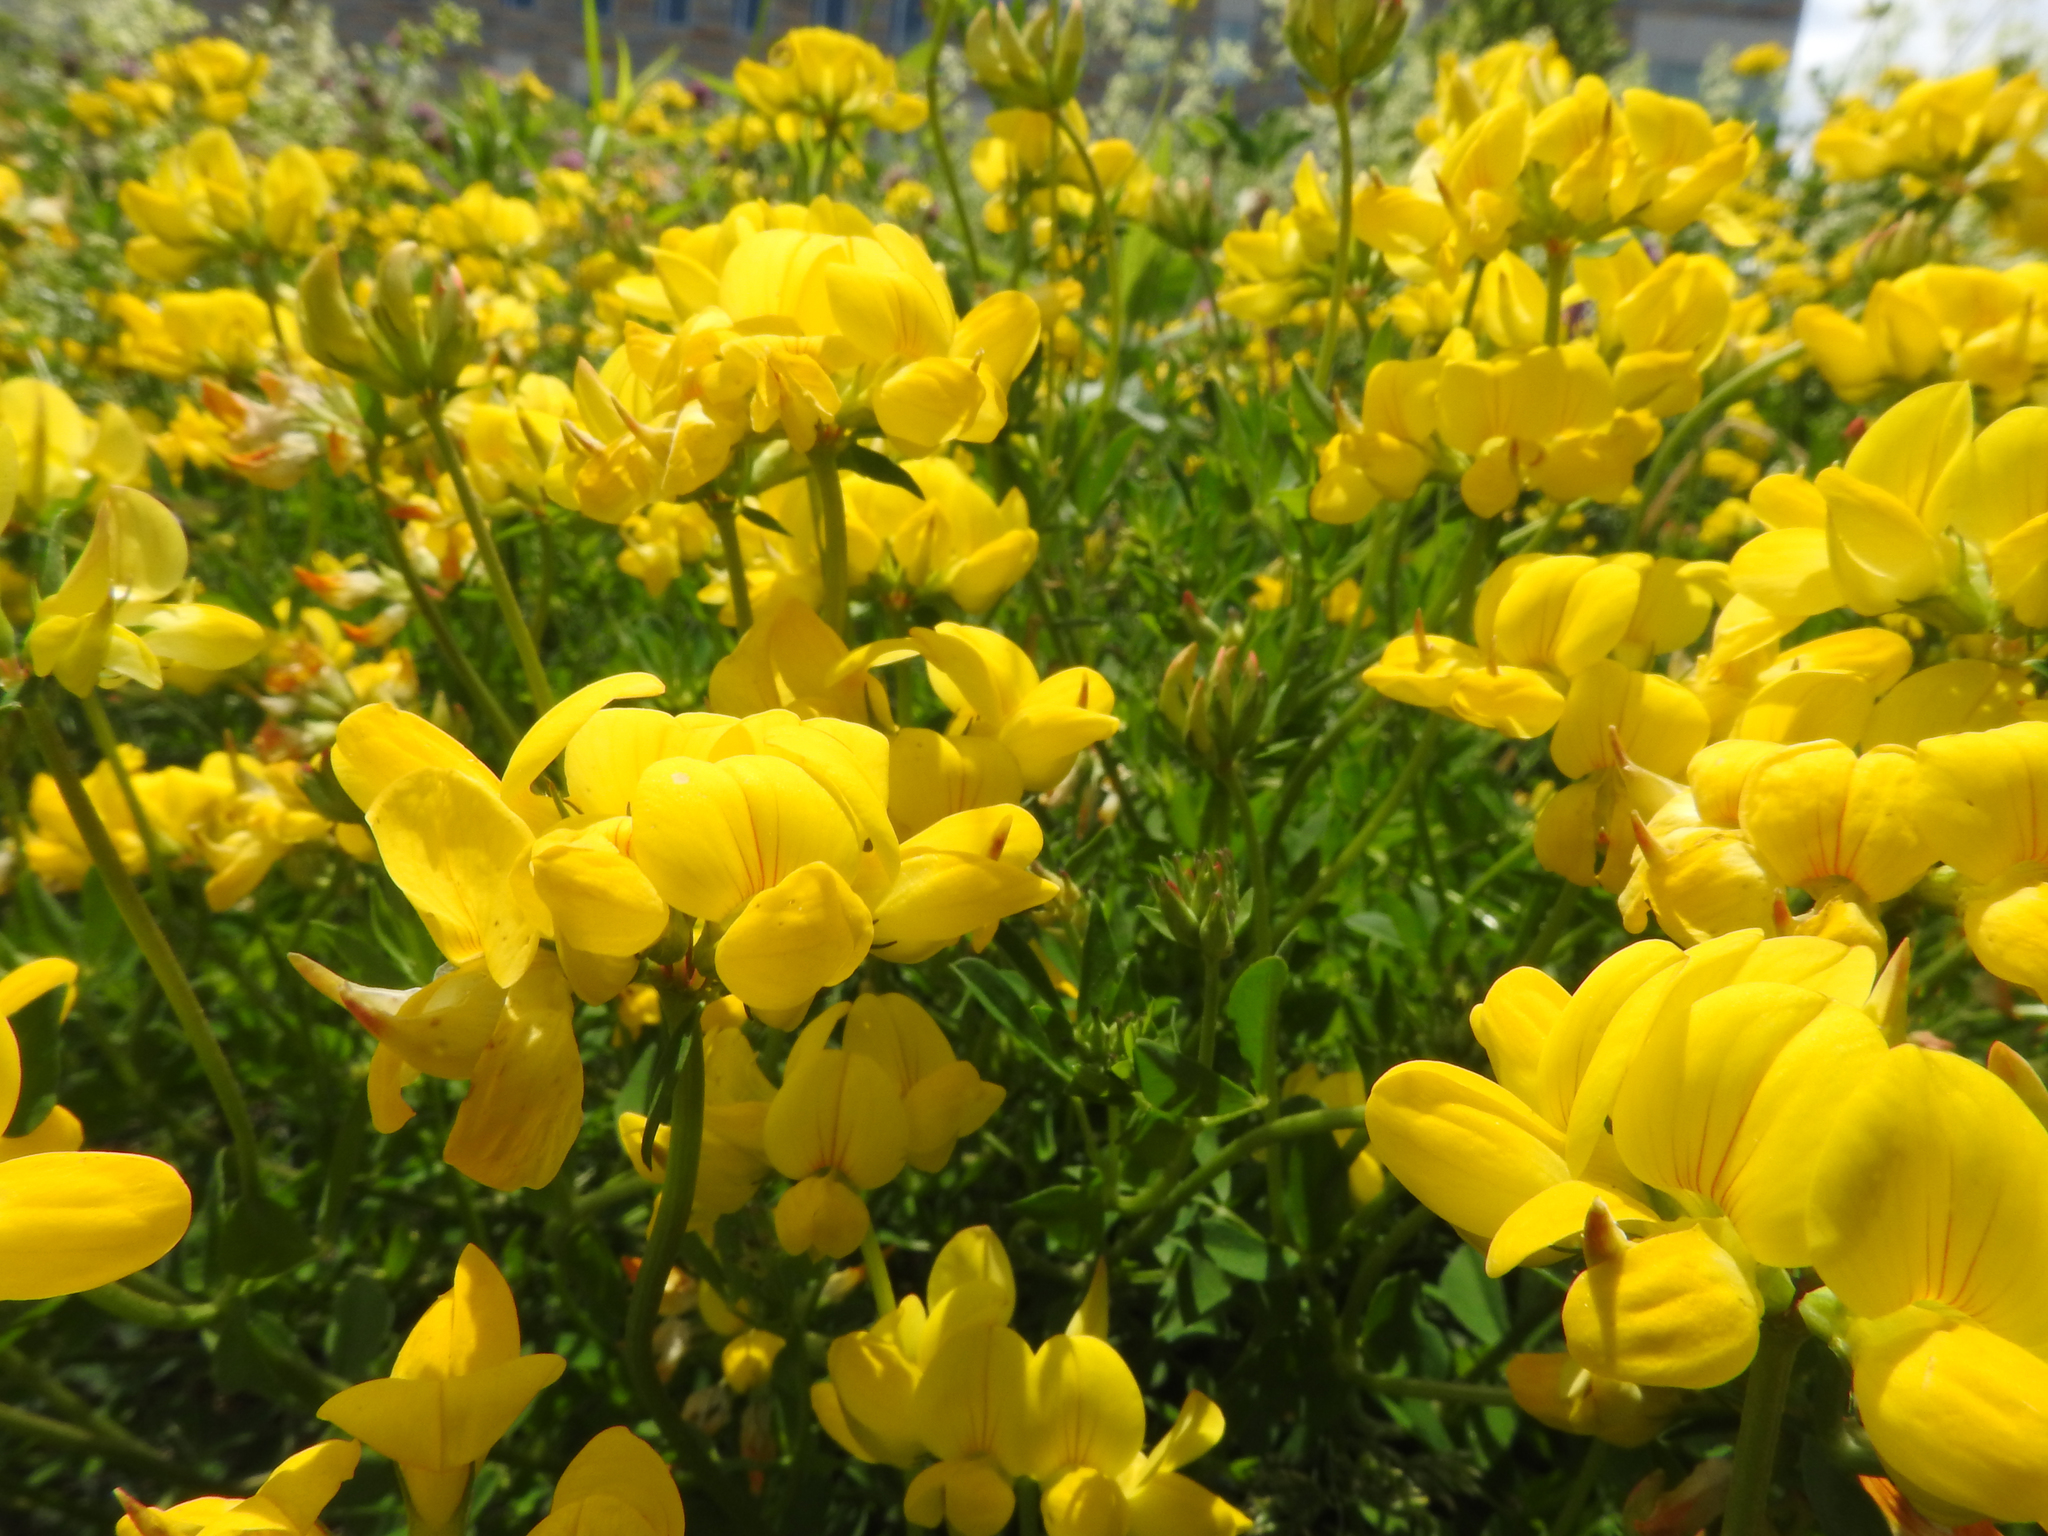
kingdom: Plantae
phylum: Tracheophyta
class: Magnoliopsida
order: Fabales
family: Fabaceae
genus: Lotus
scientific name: Lotus corniculatus
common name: Common bird's-foot-trefoil
